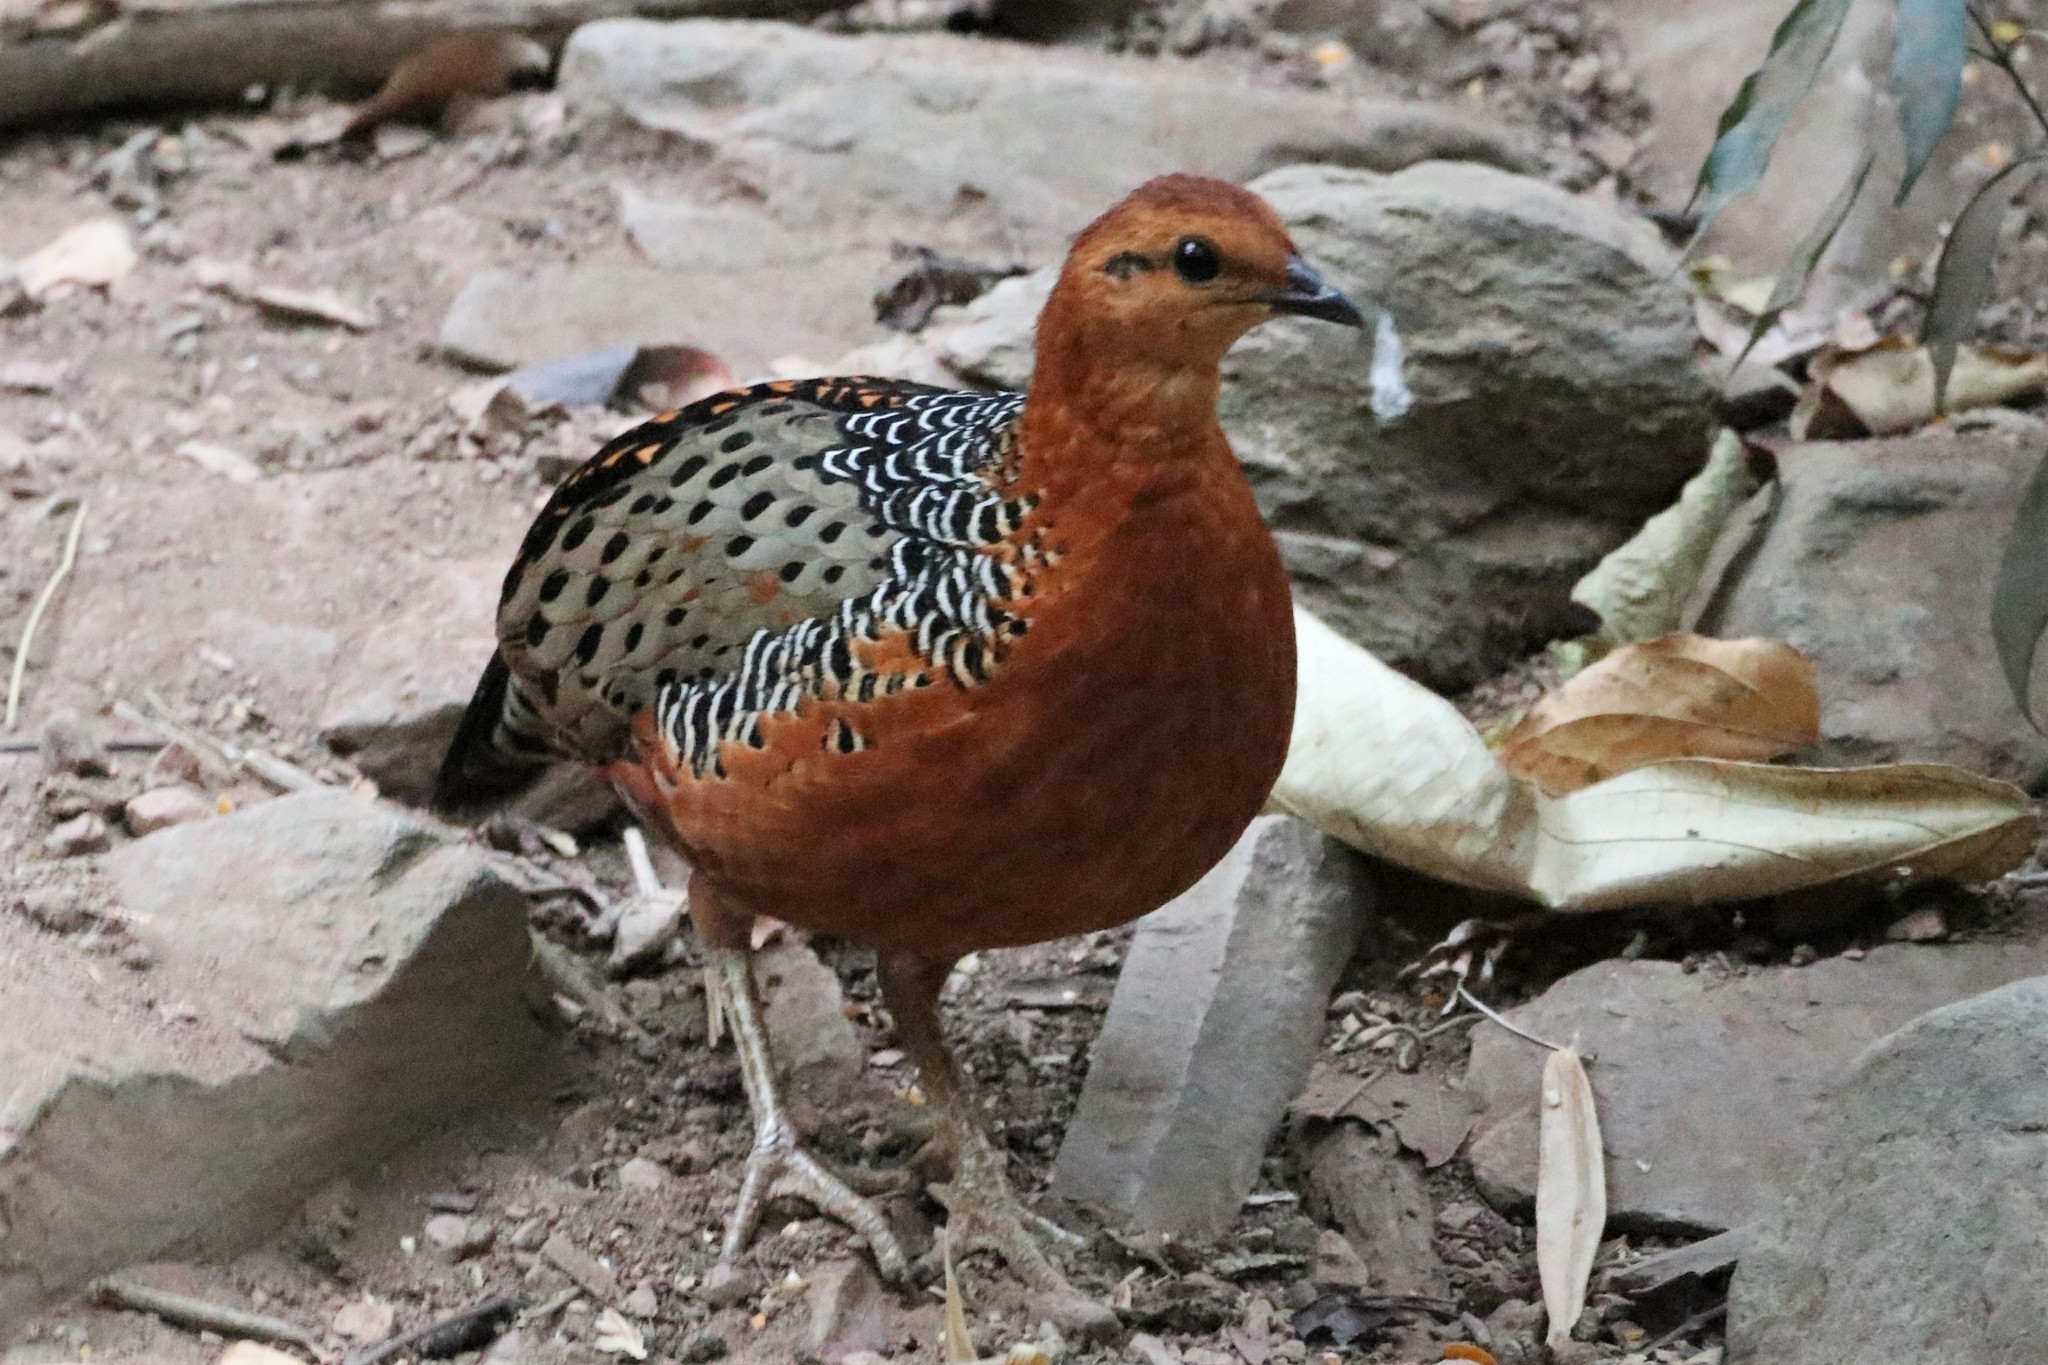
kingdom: Animalia
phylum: Chordata
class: Aves
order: Galliformes
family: Phasianidae
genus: Caloperdix
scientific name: Caloperdix oculeus
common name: Ferruginous partridge
